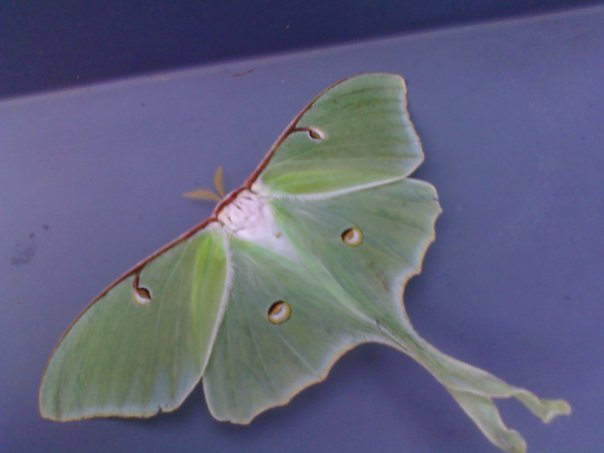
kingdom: Animalia
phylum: Arthropoda
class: Insecta
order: Lepidoptera
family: Saturniidae
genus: Actias
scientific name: Actias luna
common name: Luna moth
